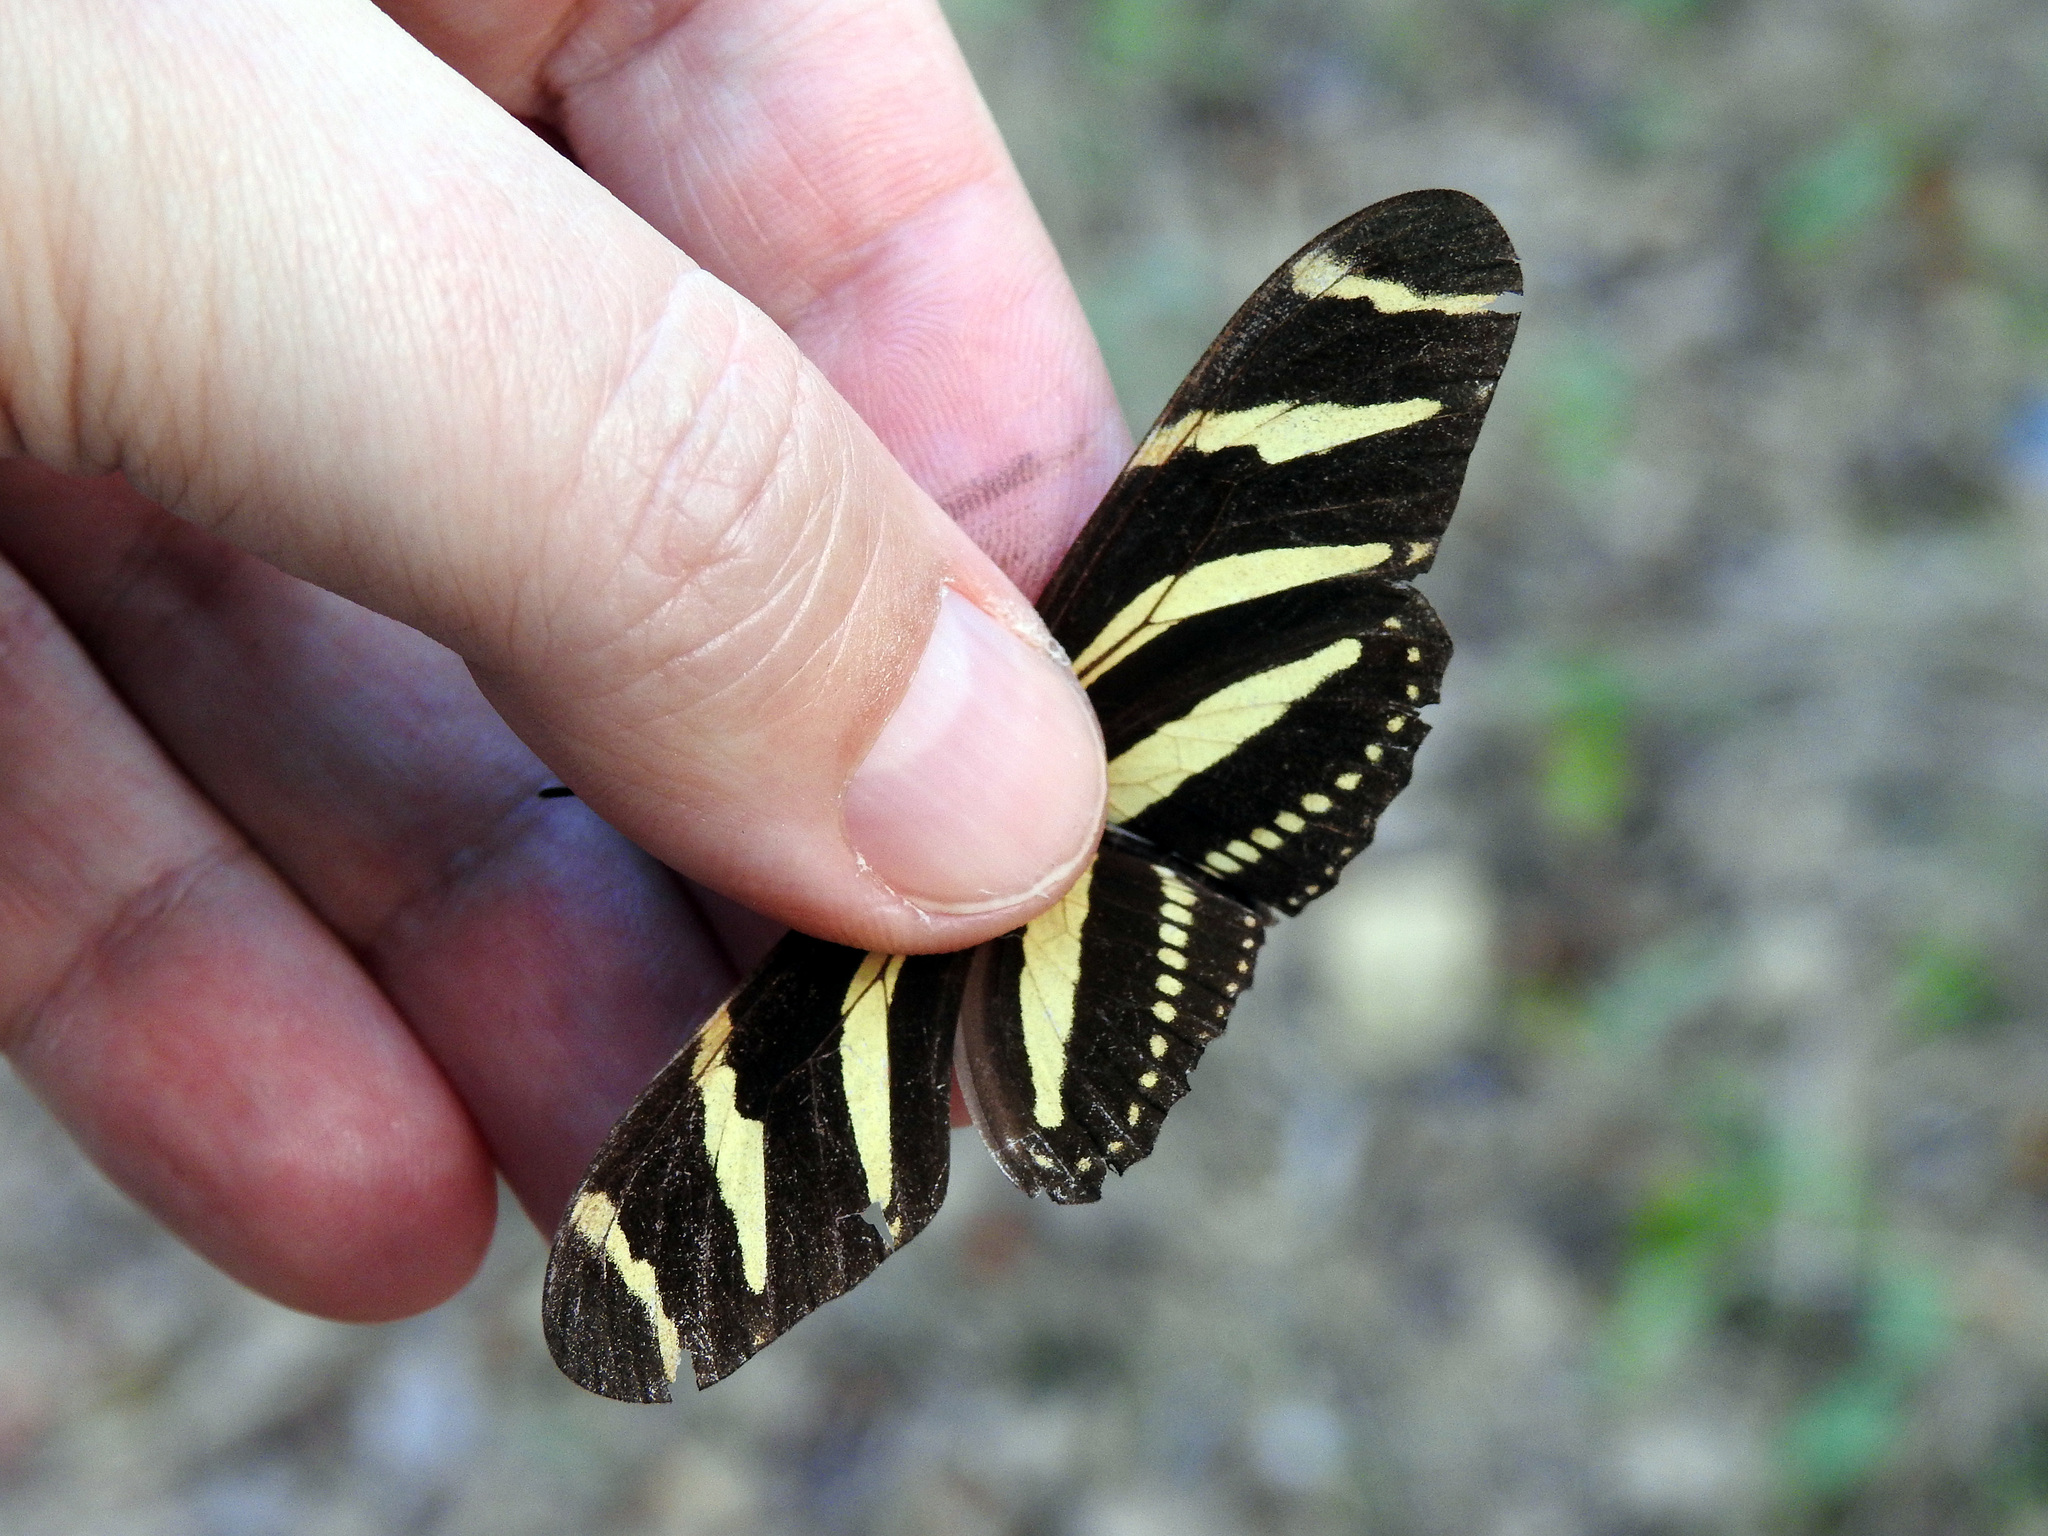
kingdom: Animalia
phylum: Arthropoda
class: Insecta
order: Lepidoptera
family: Nymphalidae
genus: Heliconius
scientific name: Heliconius charithonia
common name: Zebra long wing
